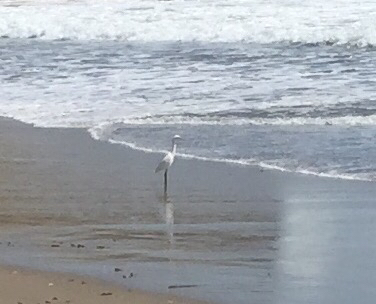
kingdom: Animalia
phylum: Chordata
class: Aves
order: Pelecaniformes
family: Ardeidae
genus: Egretta
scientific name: Egretta thula
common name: Snowy egret
